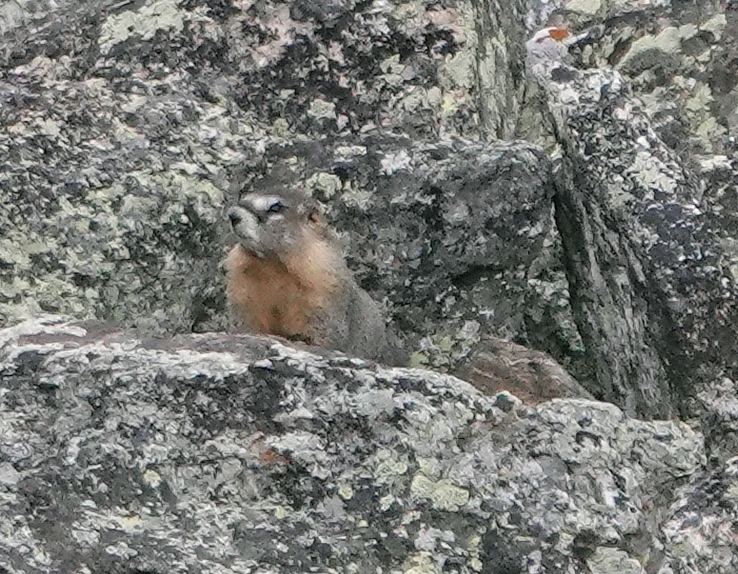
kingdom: Animalia
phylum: Chordata
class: Mammalia
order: Rodentia
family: Sciuridae
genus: Marmota
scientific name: Marmota flaviventris
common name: Yellow-bellied marmot
